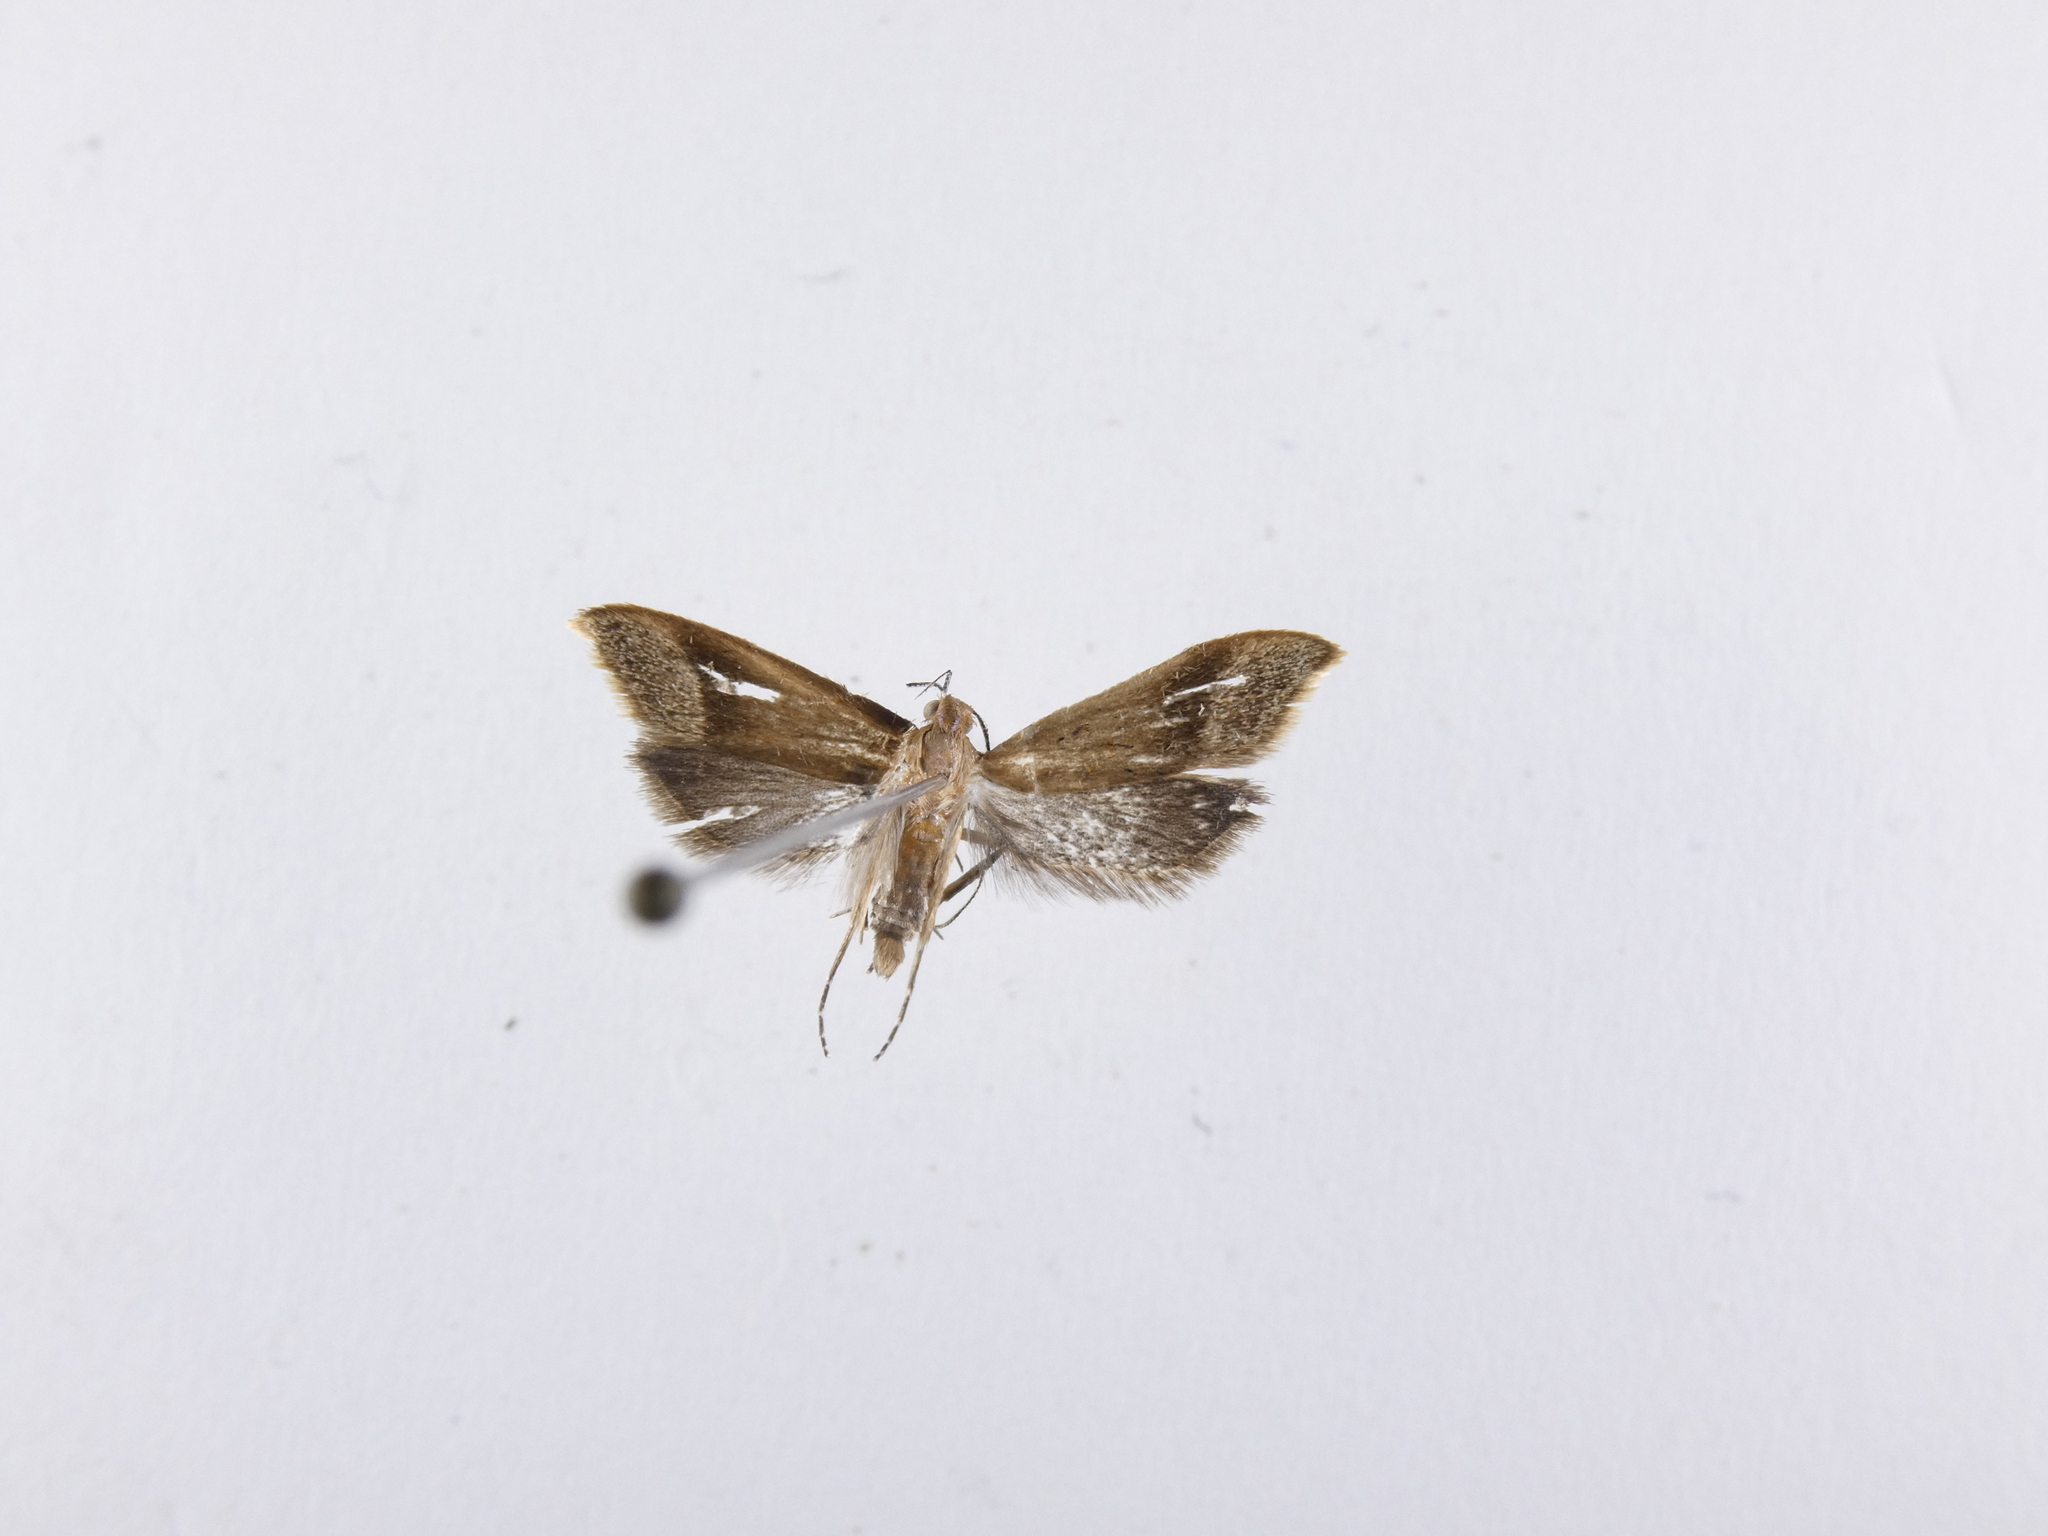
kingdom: Animalia
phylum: Arthropoda
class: Insecta
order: Lepidoptera
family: Oecophoridae
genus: Gymnobathra
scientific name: Gymnobathra hyetodes
